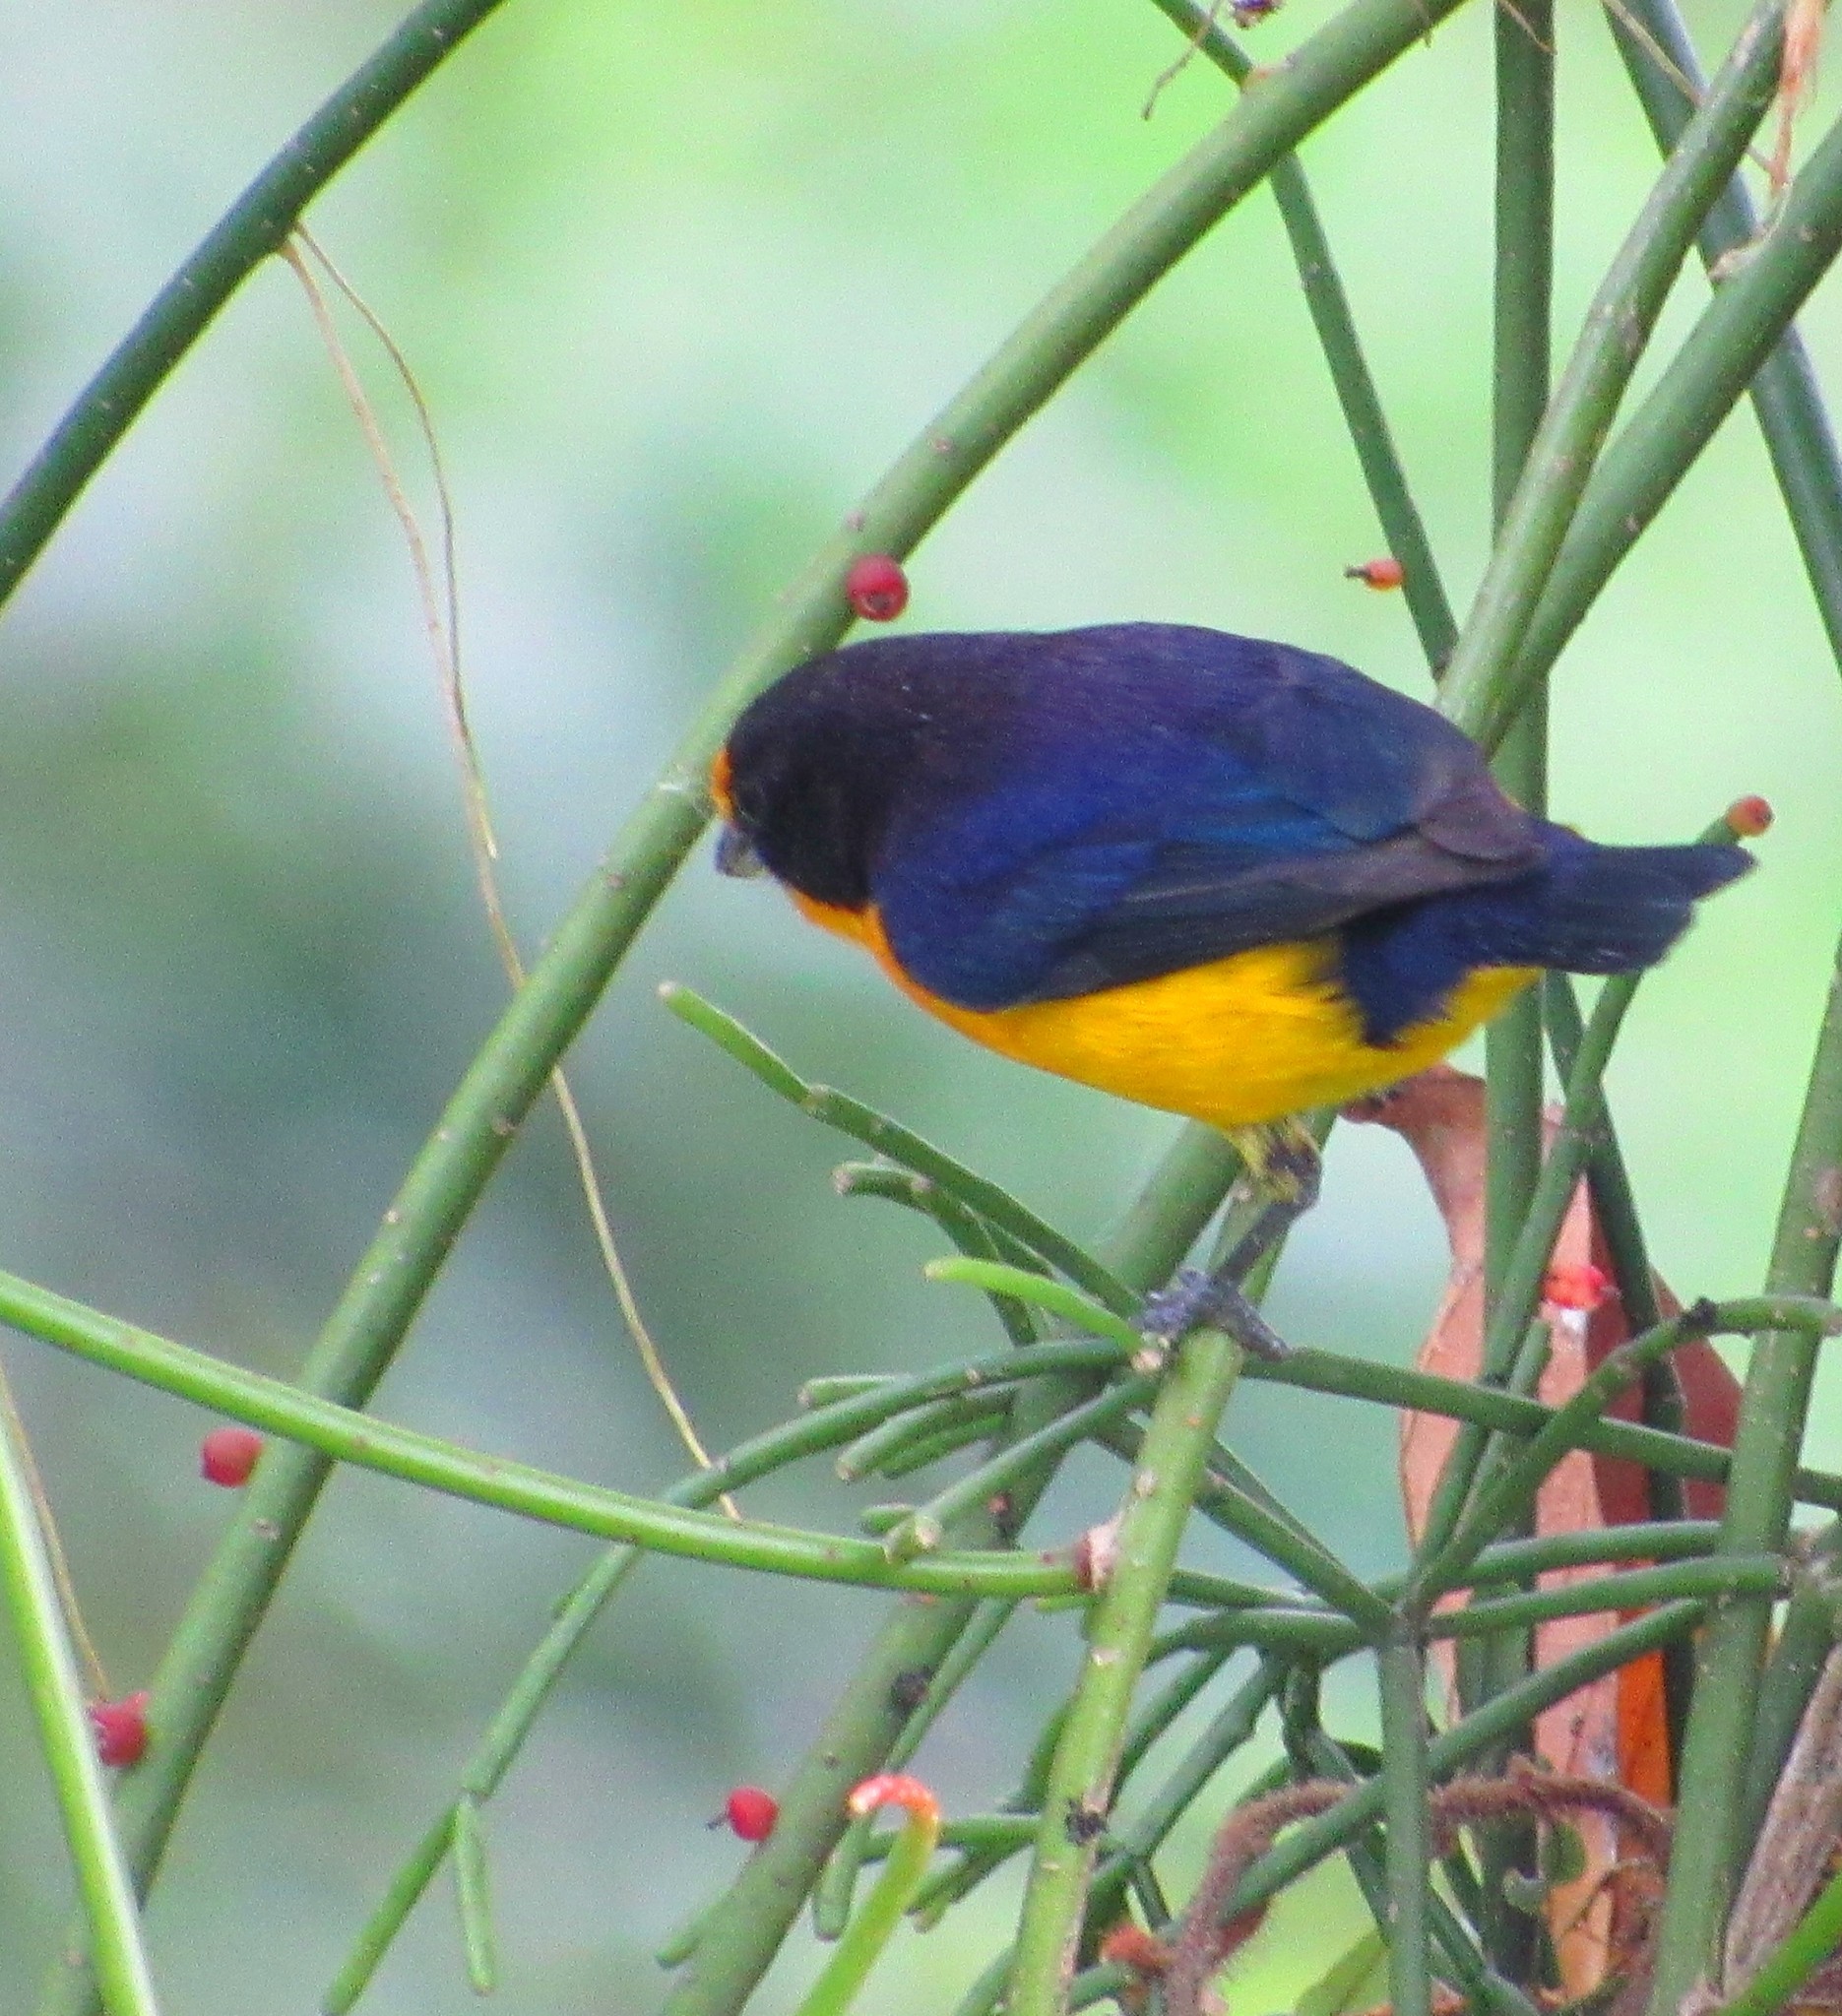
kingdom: Animalia
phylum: Chordata
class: Aves
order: Passeriformes
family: Fringillidae
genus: Euphonia
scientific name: Euphonia violacea
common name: Violaceous euphonia
